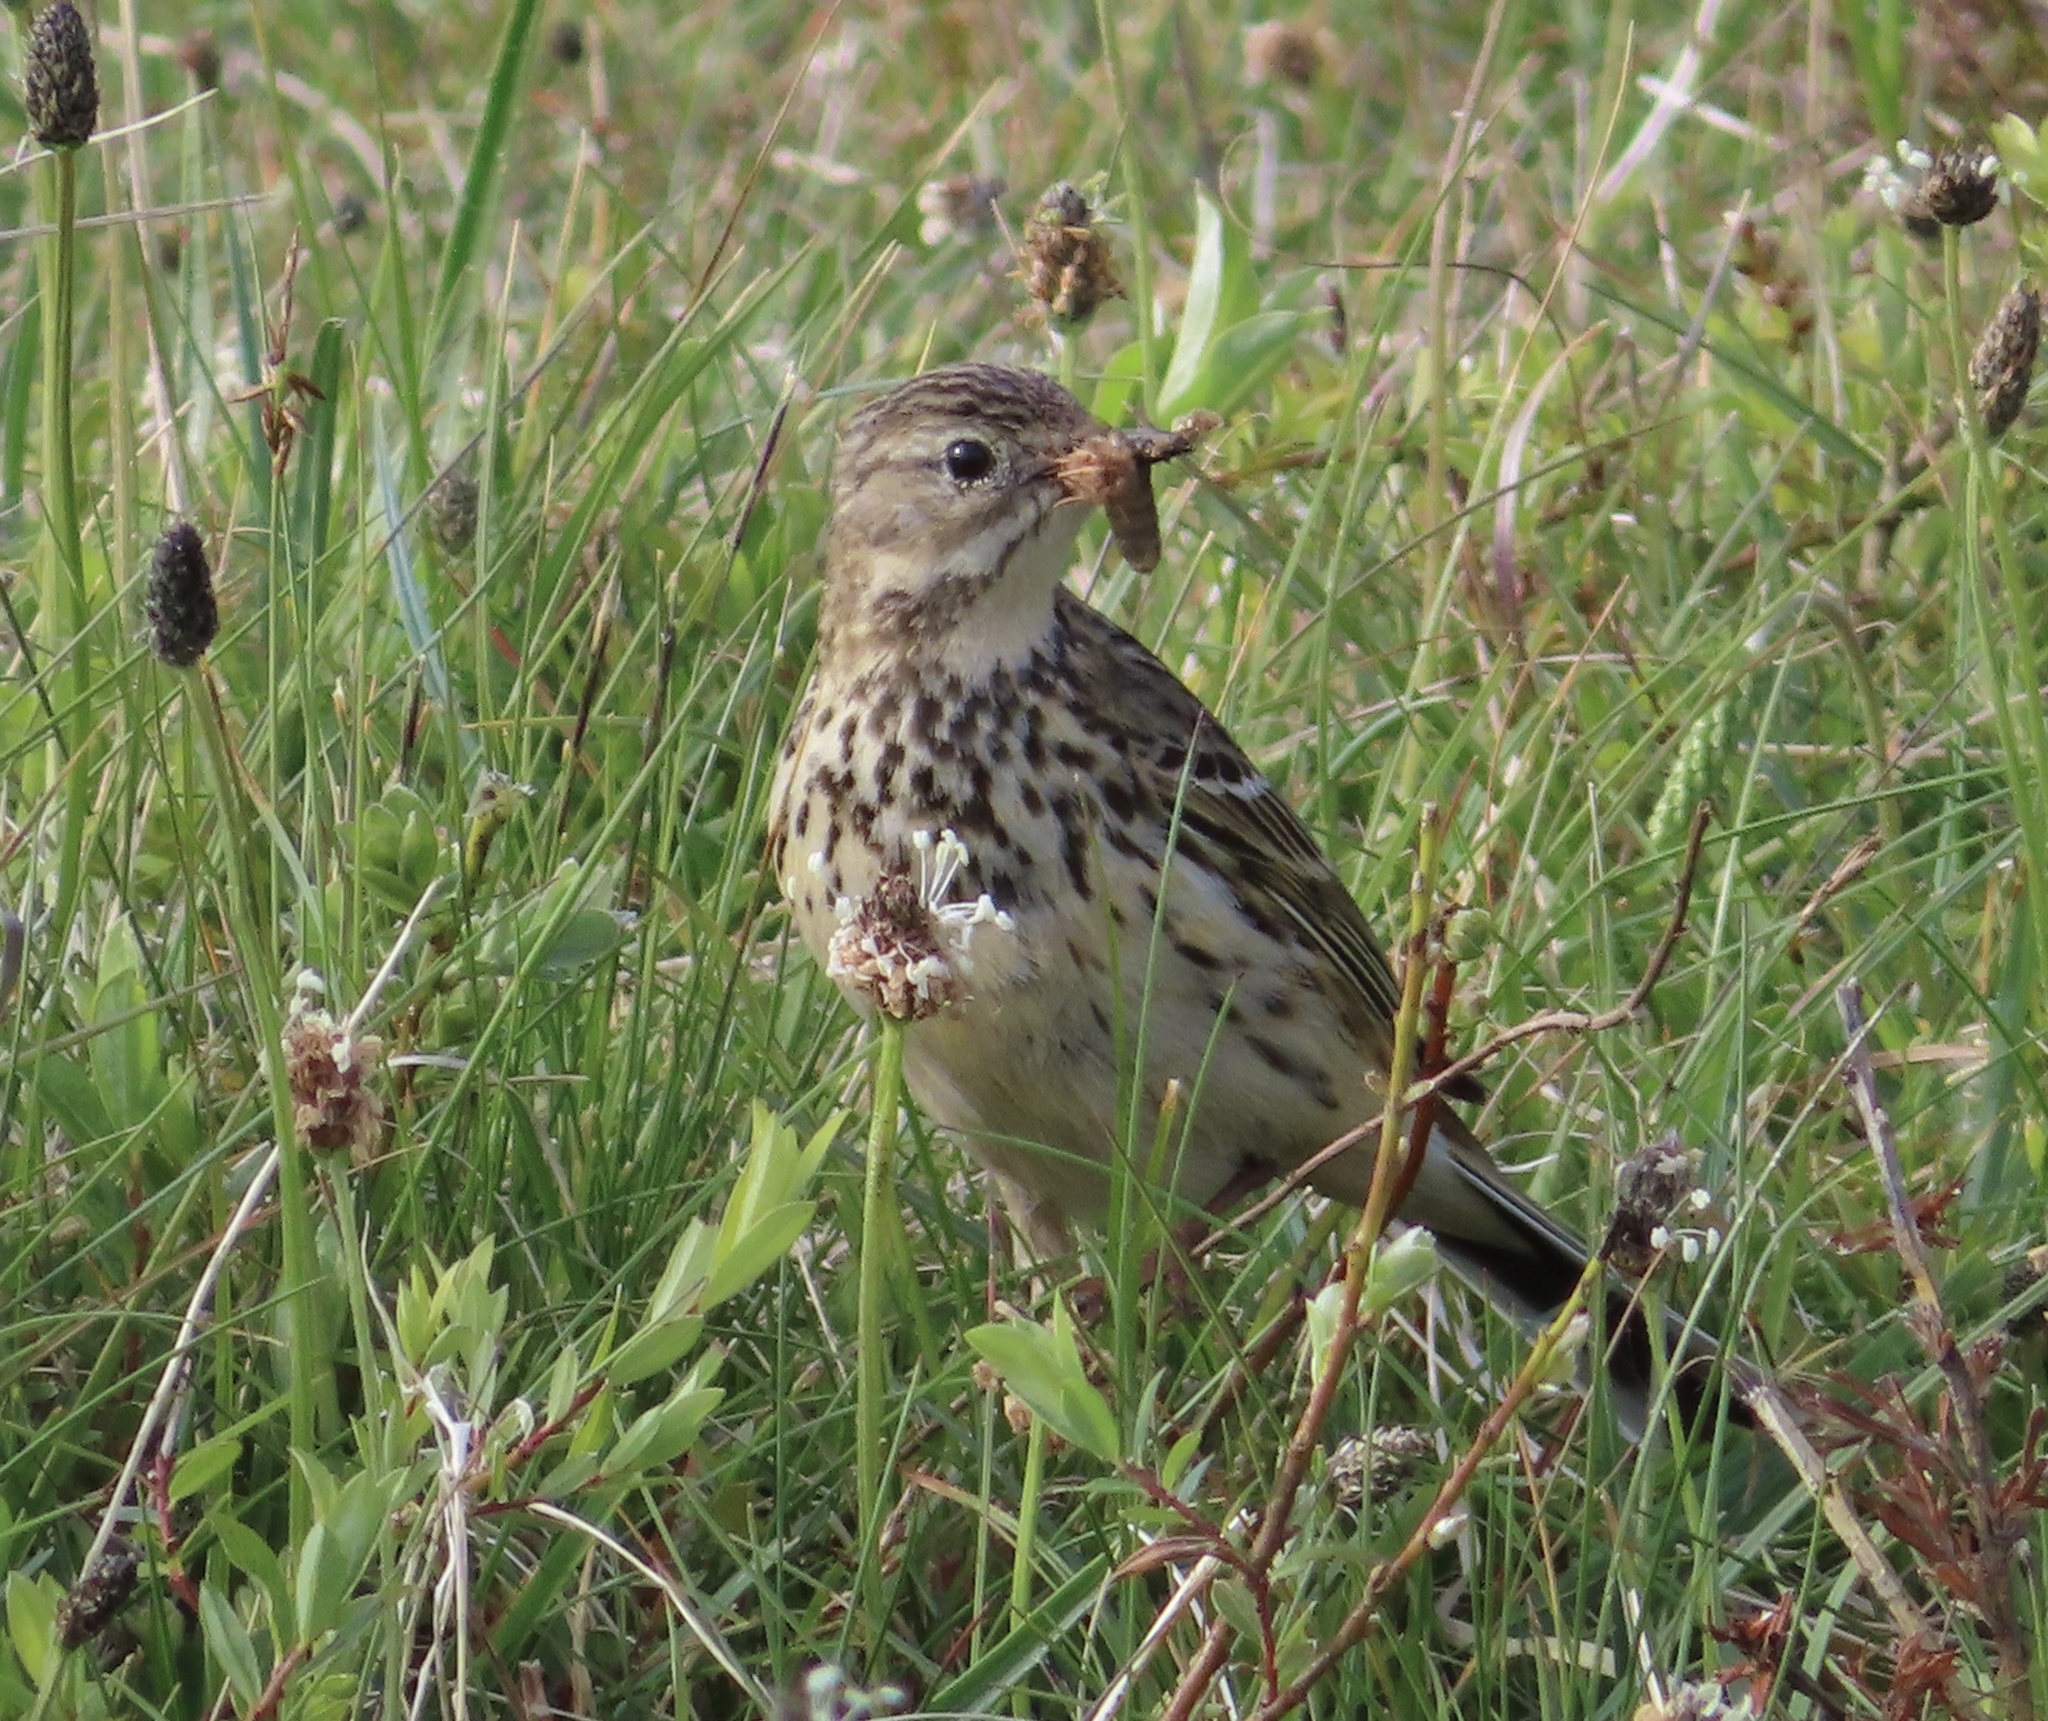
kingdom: Animalia
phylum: Chordata
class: Aves
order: Passeriformes
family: Motacillidae
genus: Anthus
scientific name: Anthus pratensis
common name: Meadow pipit
